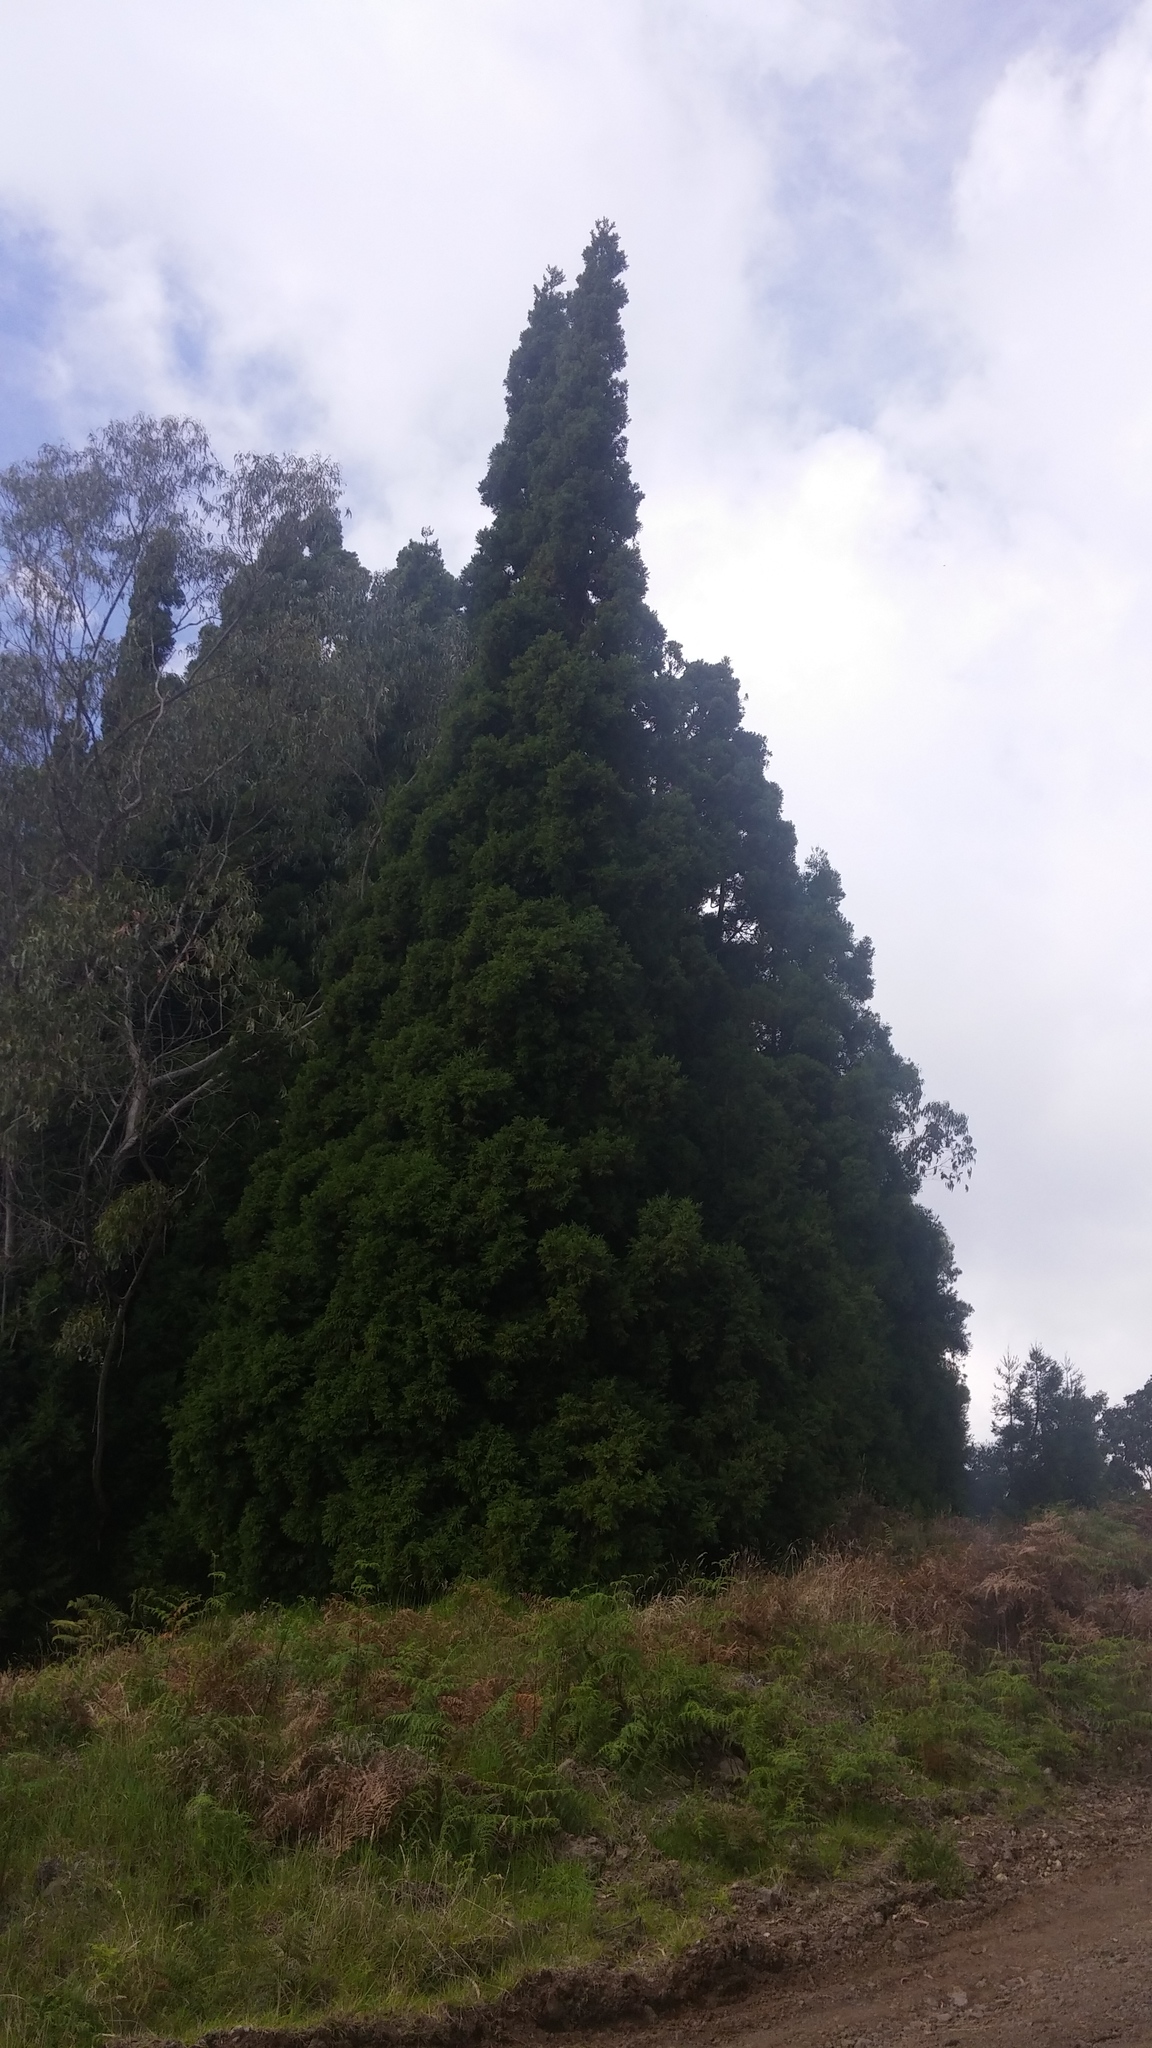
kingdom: Plantae
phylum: Tracheophyta
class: Pinopsida
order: Pinales
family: Cupressaceae
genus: Cryptomeria
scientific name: Cryptomeria japonica
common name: Japanese cedar
